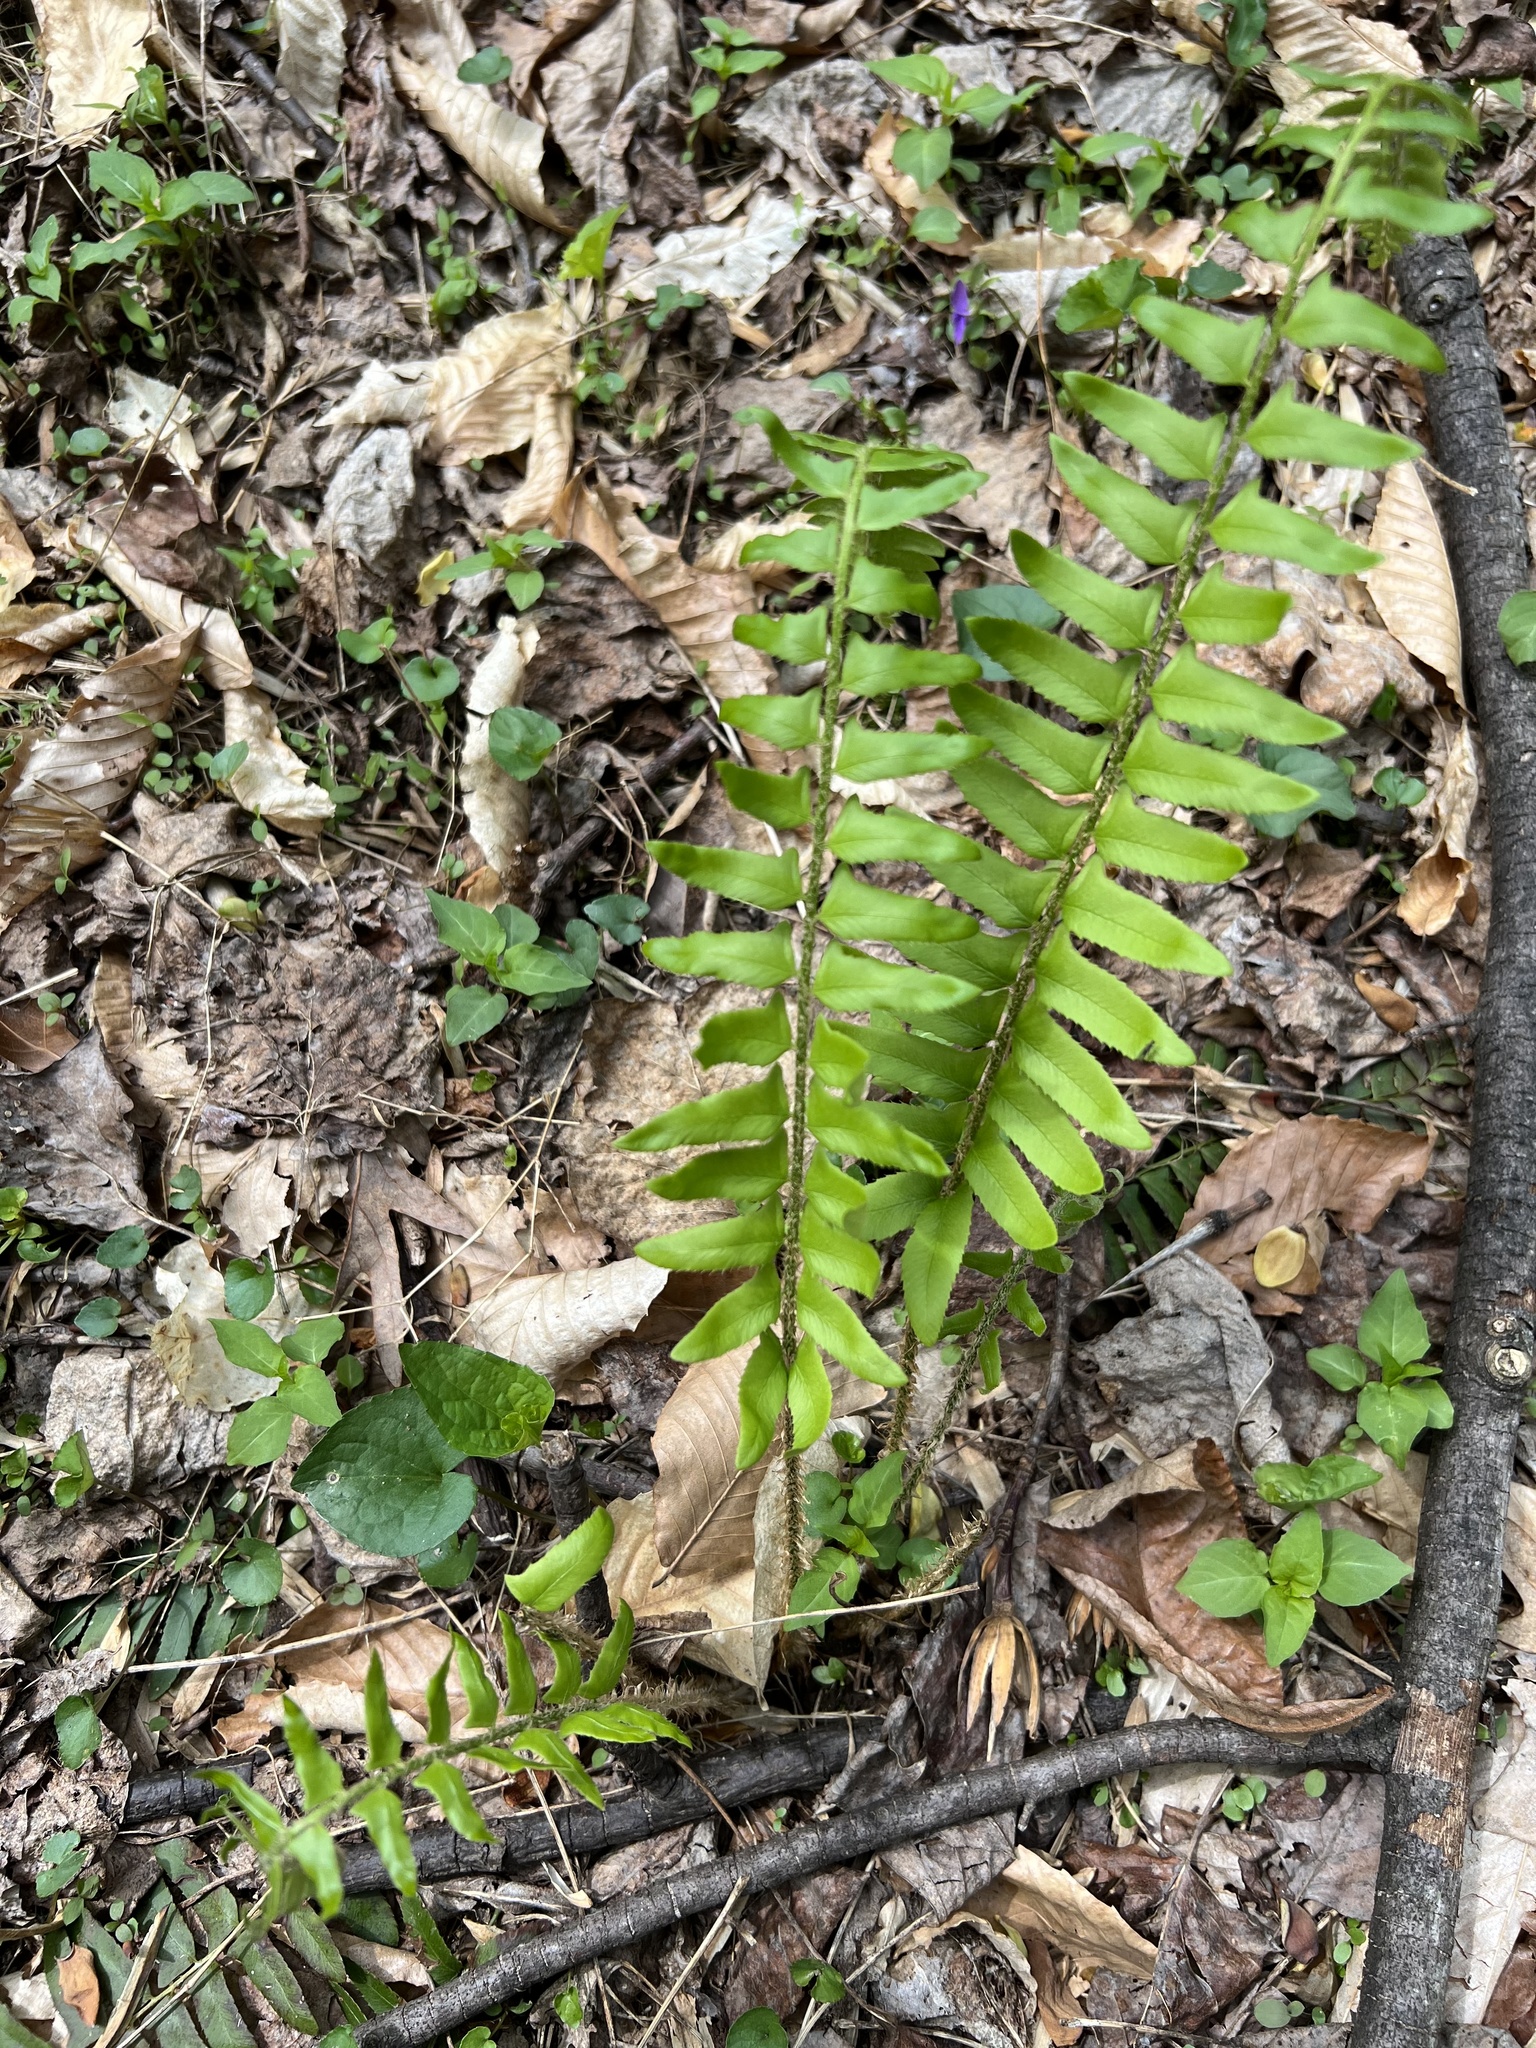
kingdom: Plantae
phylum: Tracheophyta
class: Polypodiopsida
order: Polypodiales
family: Dryopteridaceae
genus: Polystichum
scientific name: Polystichum acrostichoides
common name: Christmas fern
